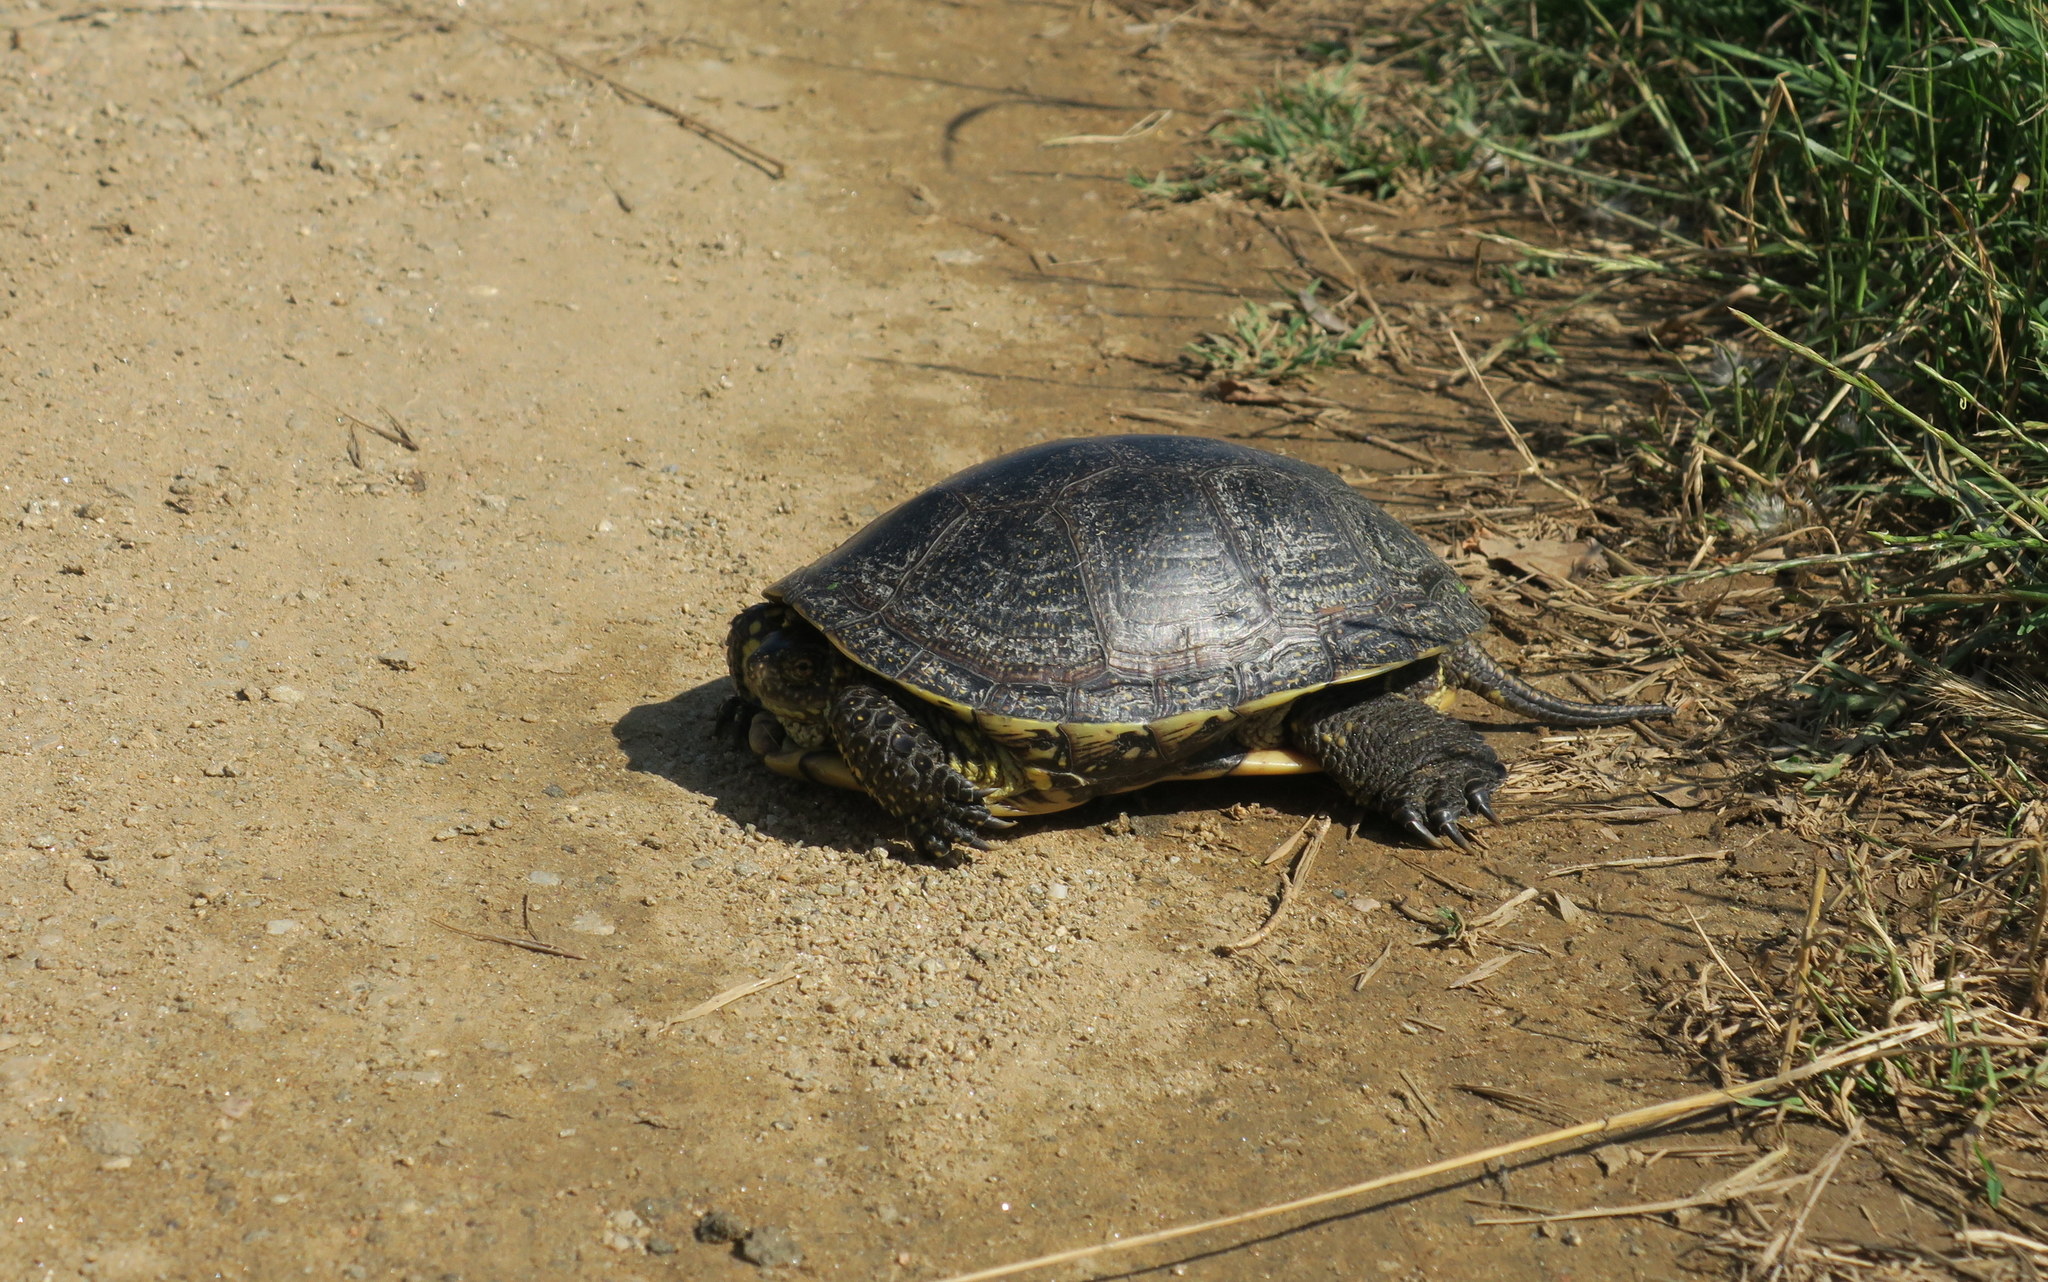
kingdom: Animalia
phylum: Chordata
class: Testudines
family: Emydidae
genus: Emys
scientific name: Emys orbicularis
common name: European pond turtle
